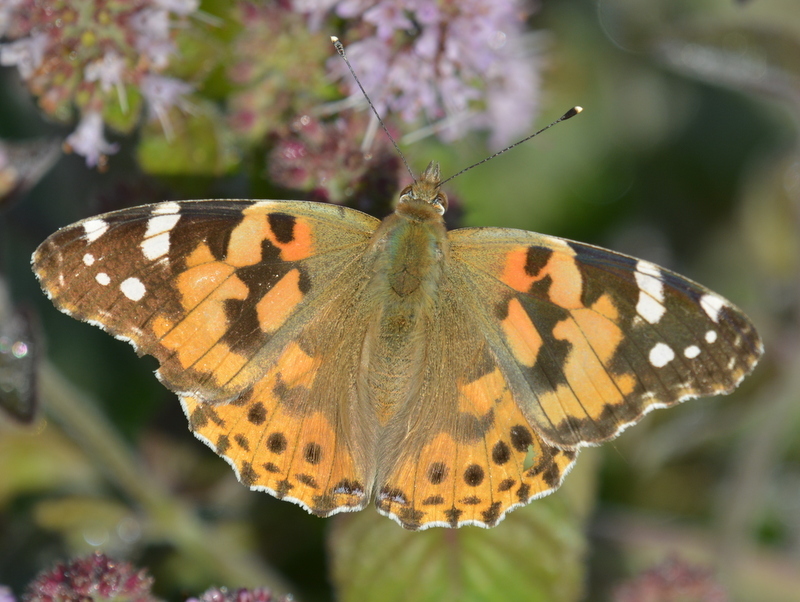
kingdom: Animalia
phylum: Arthropoda
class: Insecta
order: Lepidoptera
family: Nymphalidae
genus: Vanessa
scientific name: Vanessa cardui
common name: Painted lady
